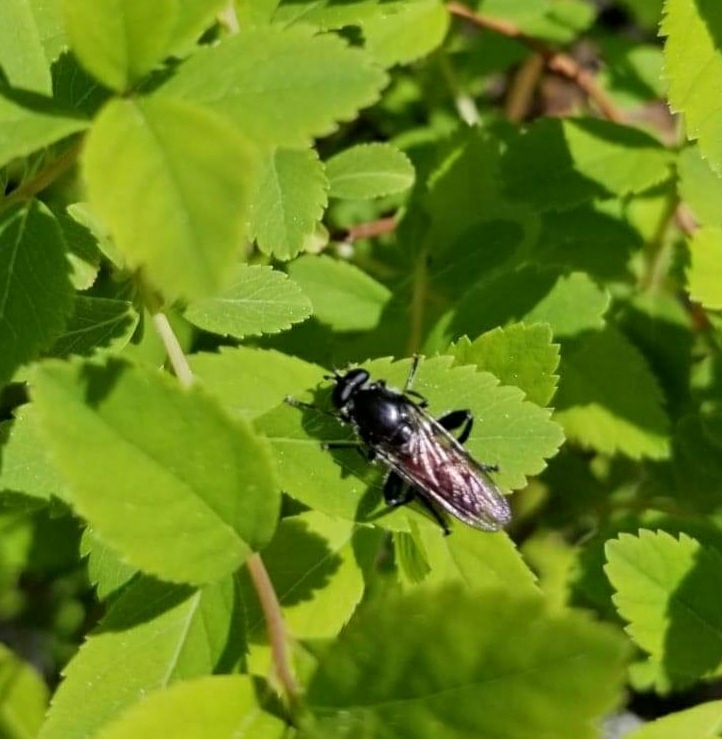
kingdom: Animalia
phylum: Arthropoda
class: Insecta
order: Diptera
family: Syrphidae
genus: Brachypalpoides
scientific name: Brachypalpoides lenta
